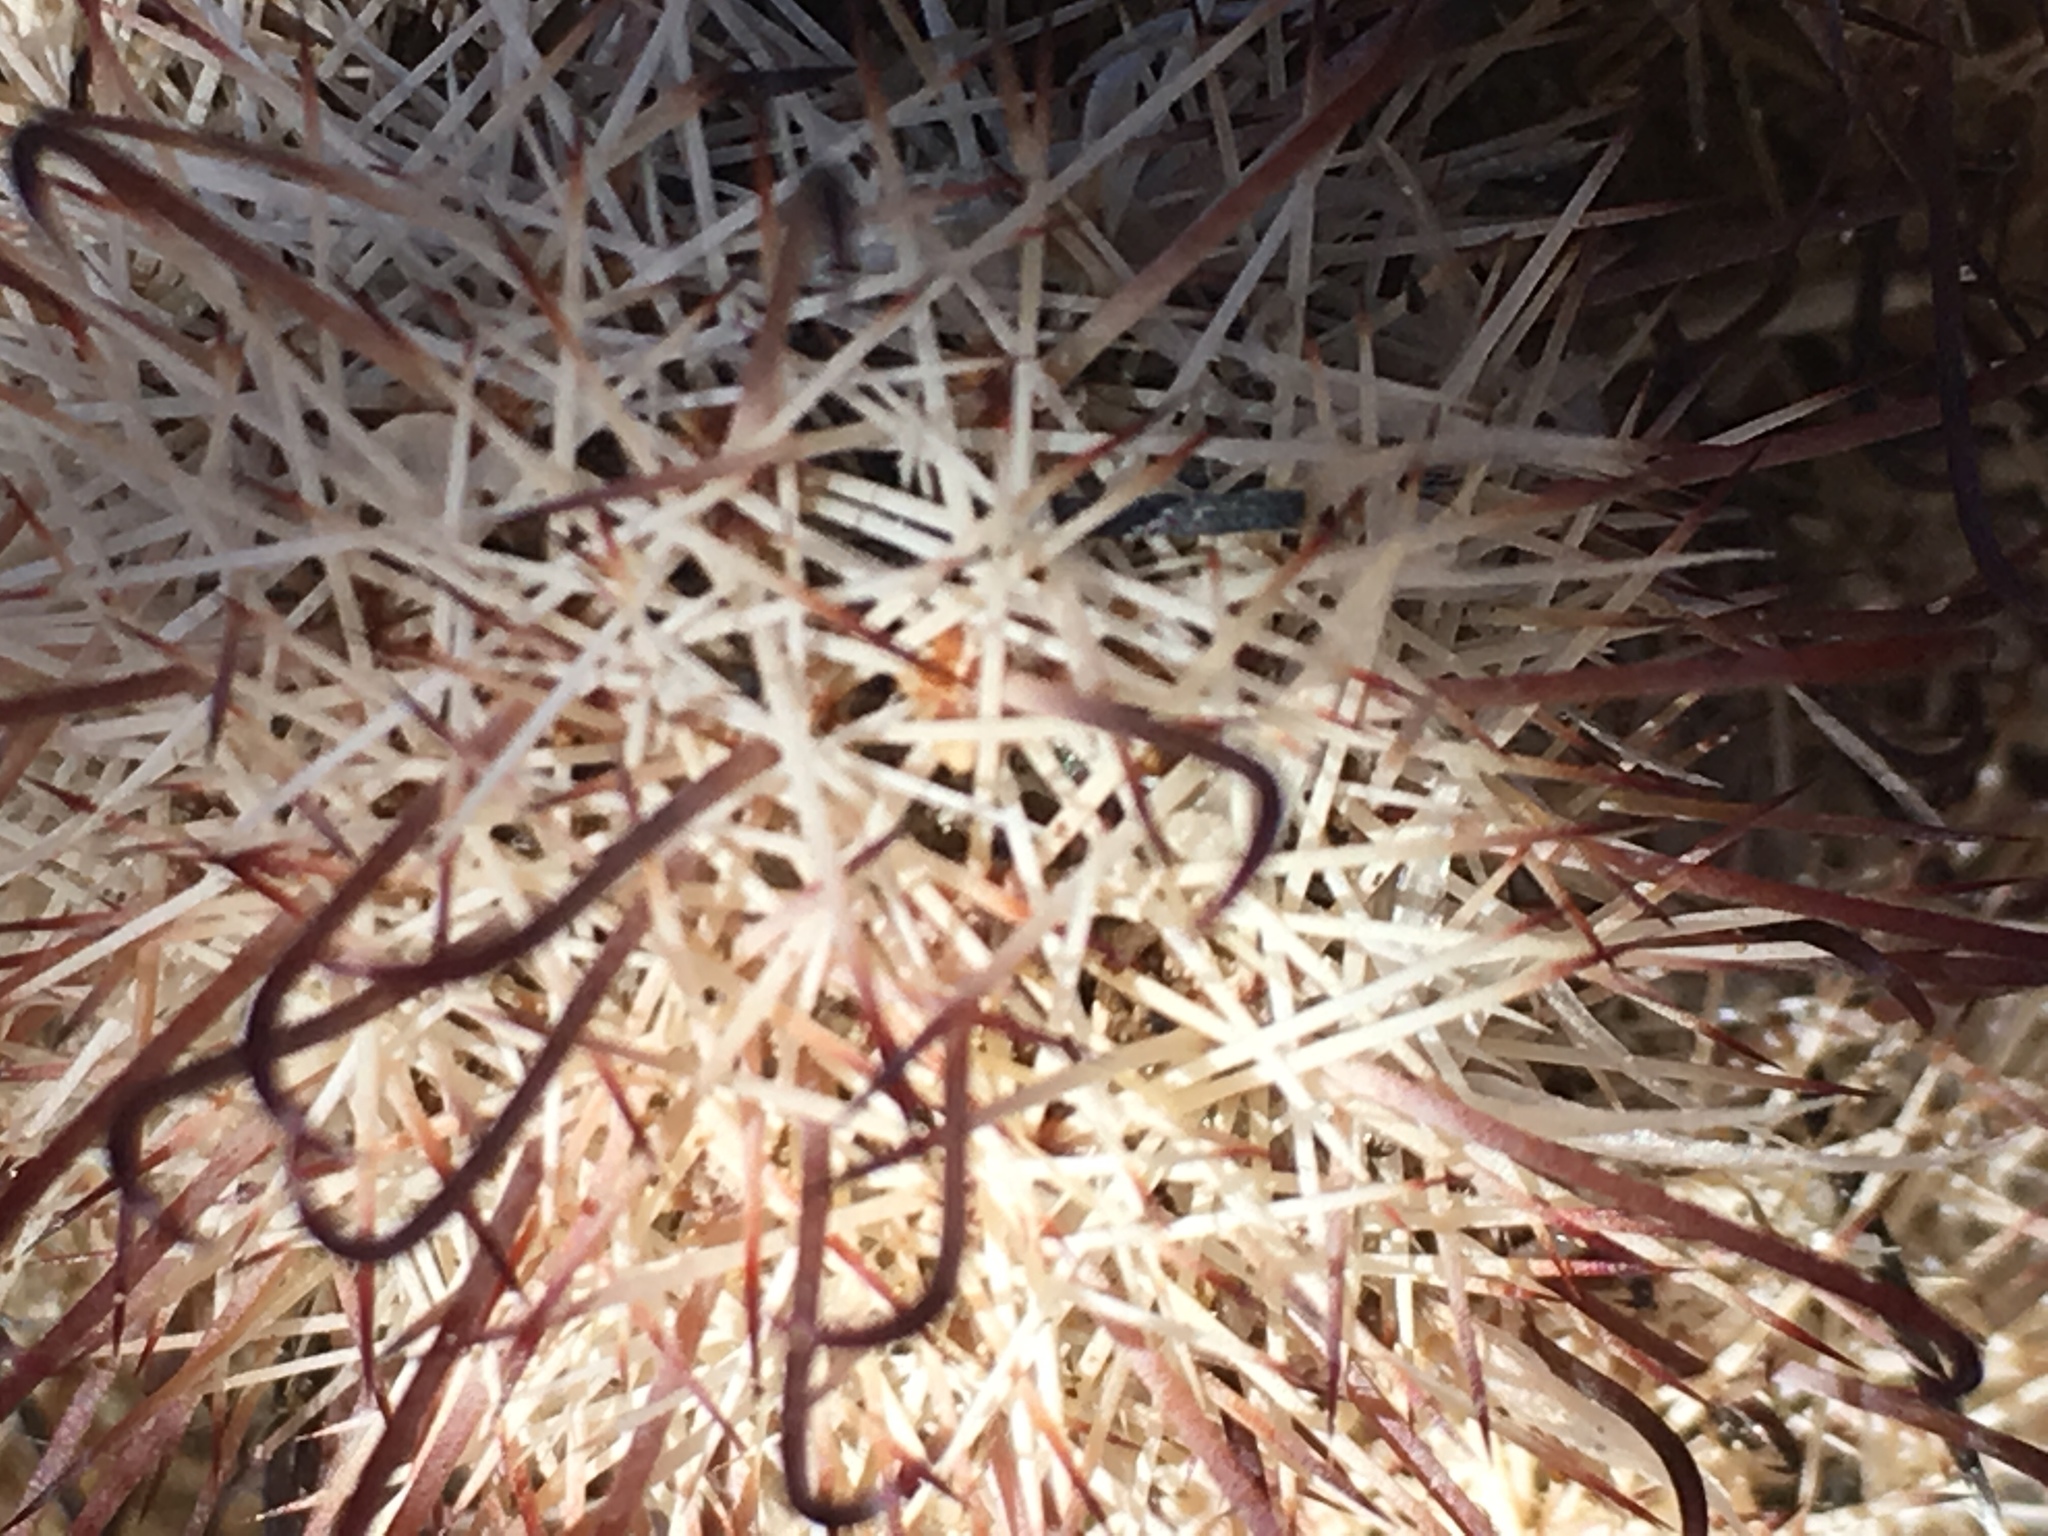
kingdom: Plantae
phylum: Tracheophyta
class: Magnoliopsida
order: Caryophyllales
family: Cactaceae
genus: Cochemiea
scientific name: Cochemiea dioica
